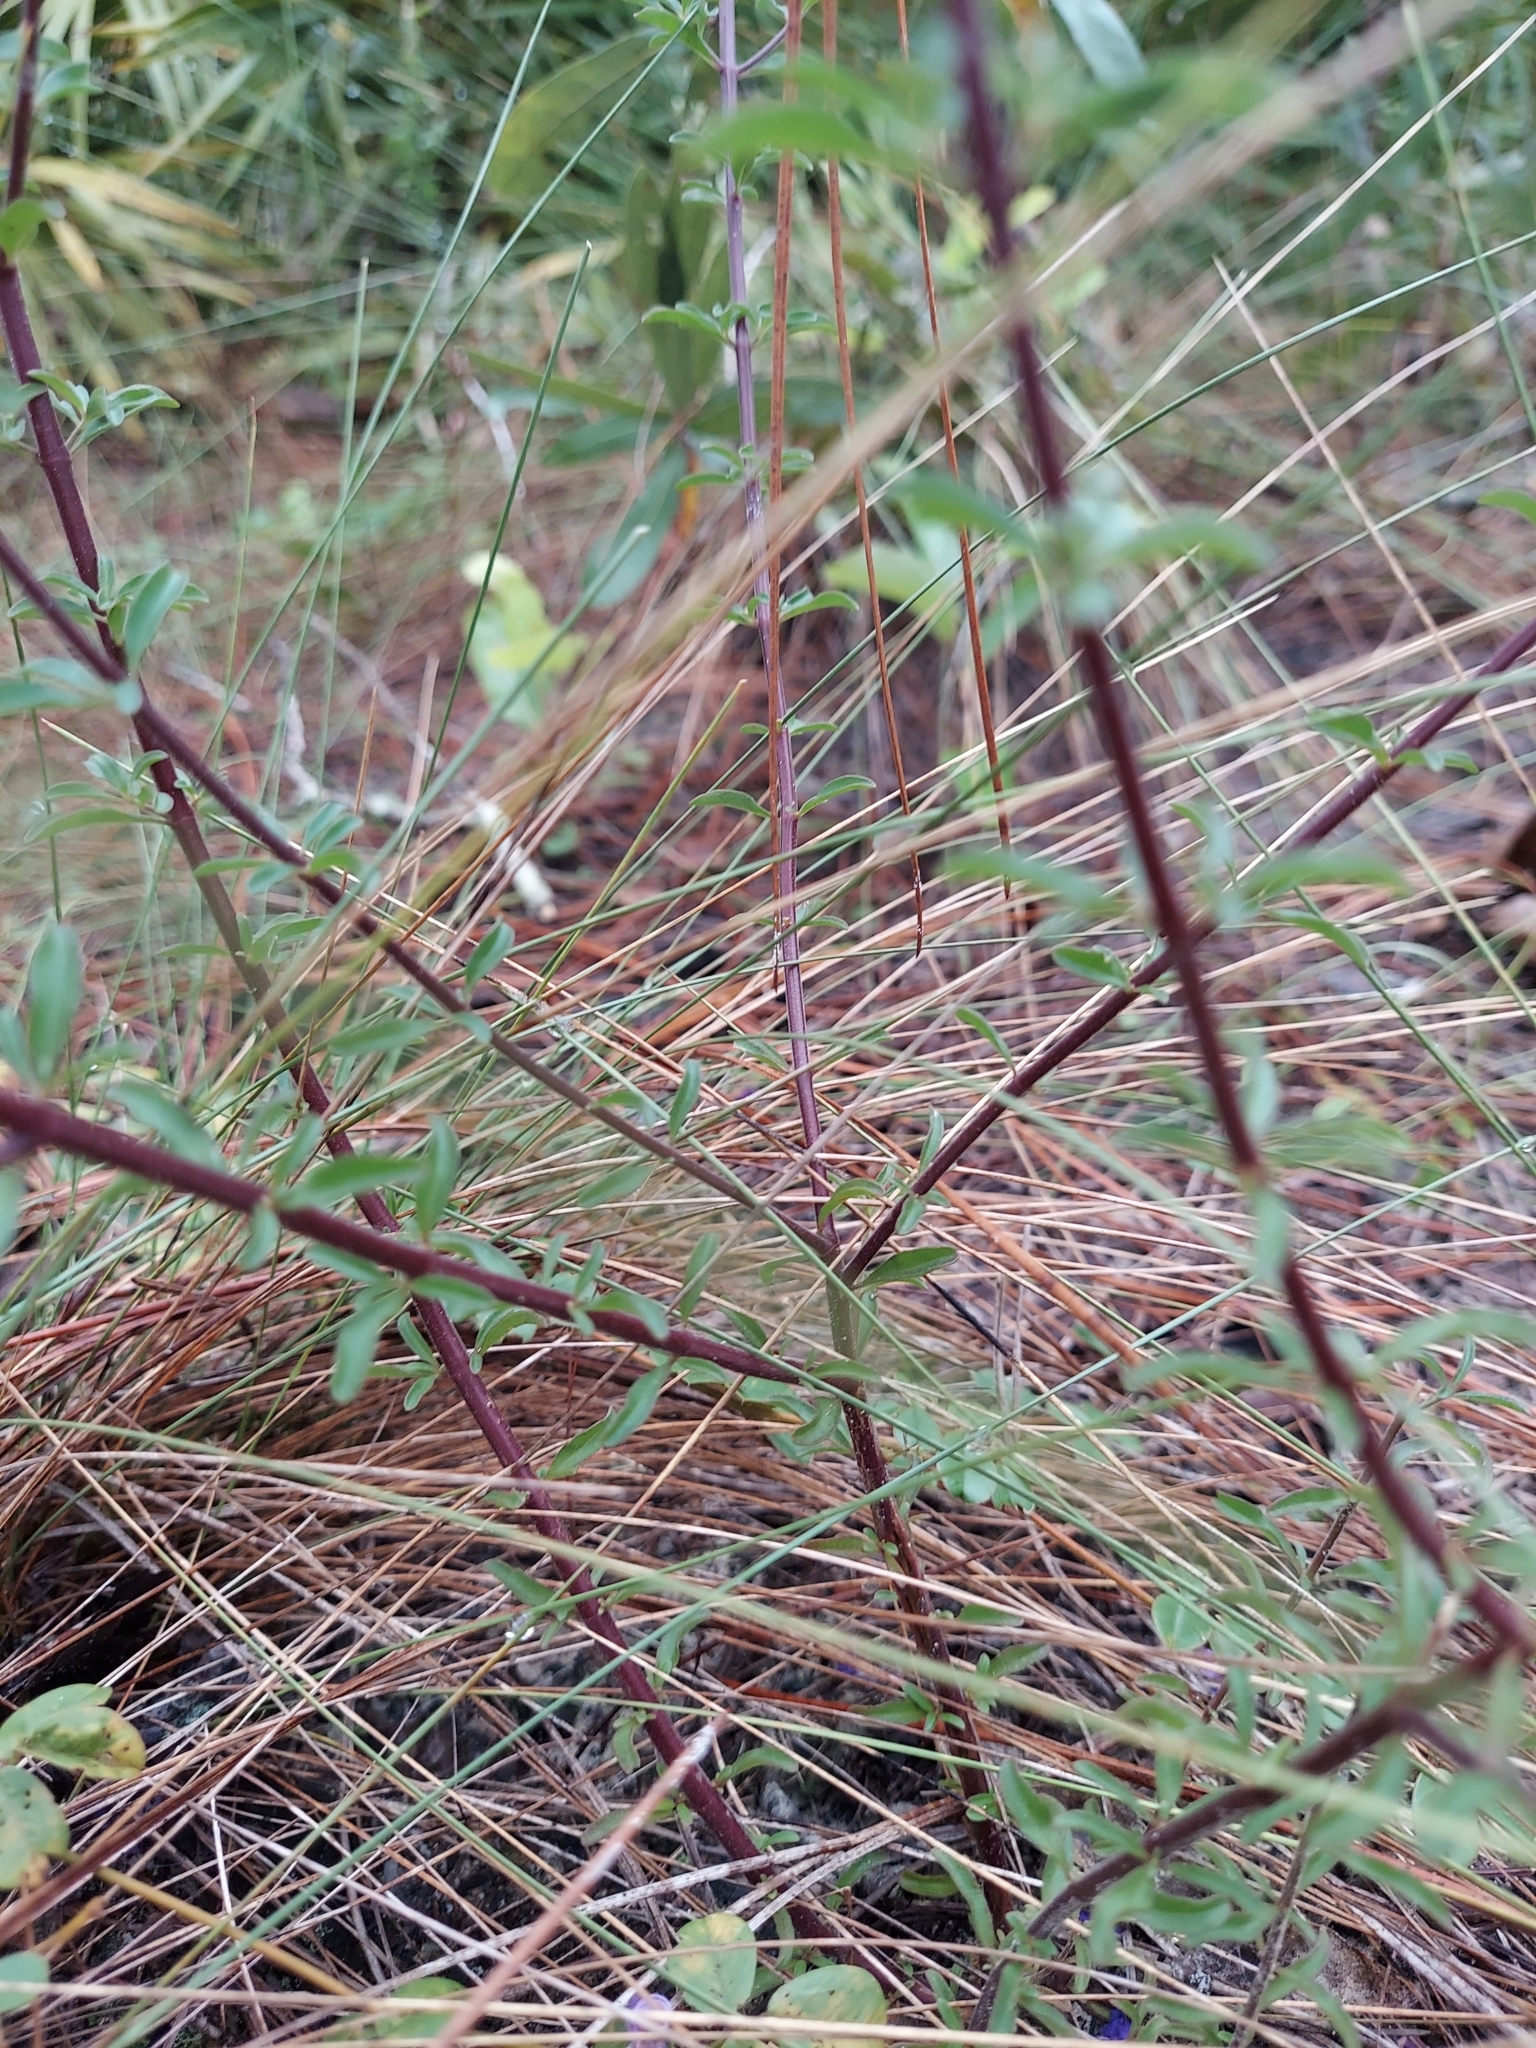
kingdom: Plantae
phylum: Tracheophyta
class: Magnoliopsida
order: Lamiales
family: Lamiaceae
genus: Trichostema
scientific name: Trichostema microphyllum
